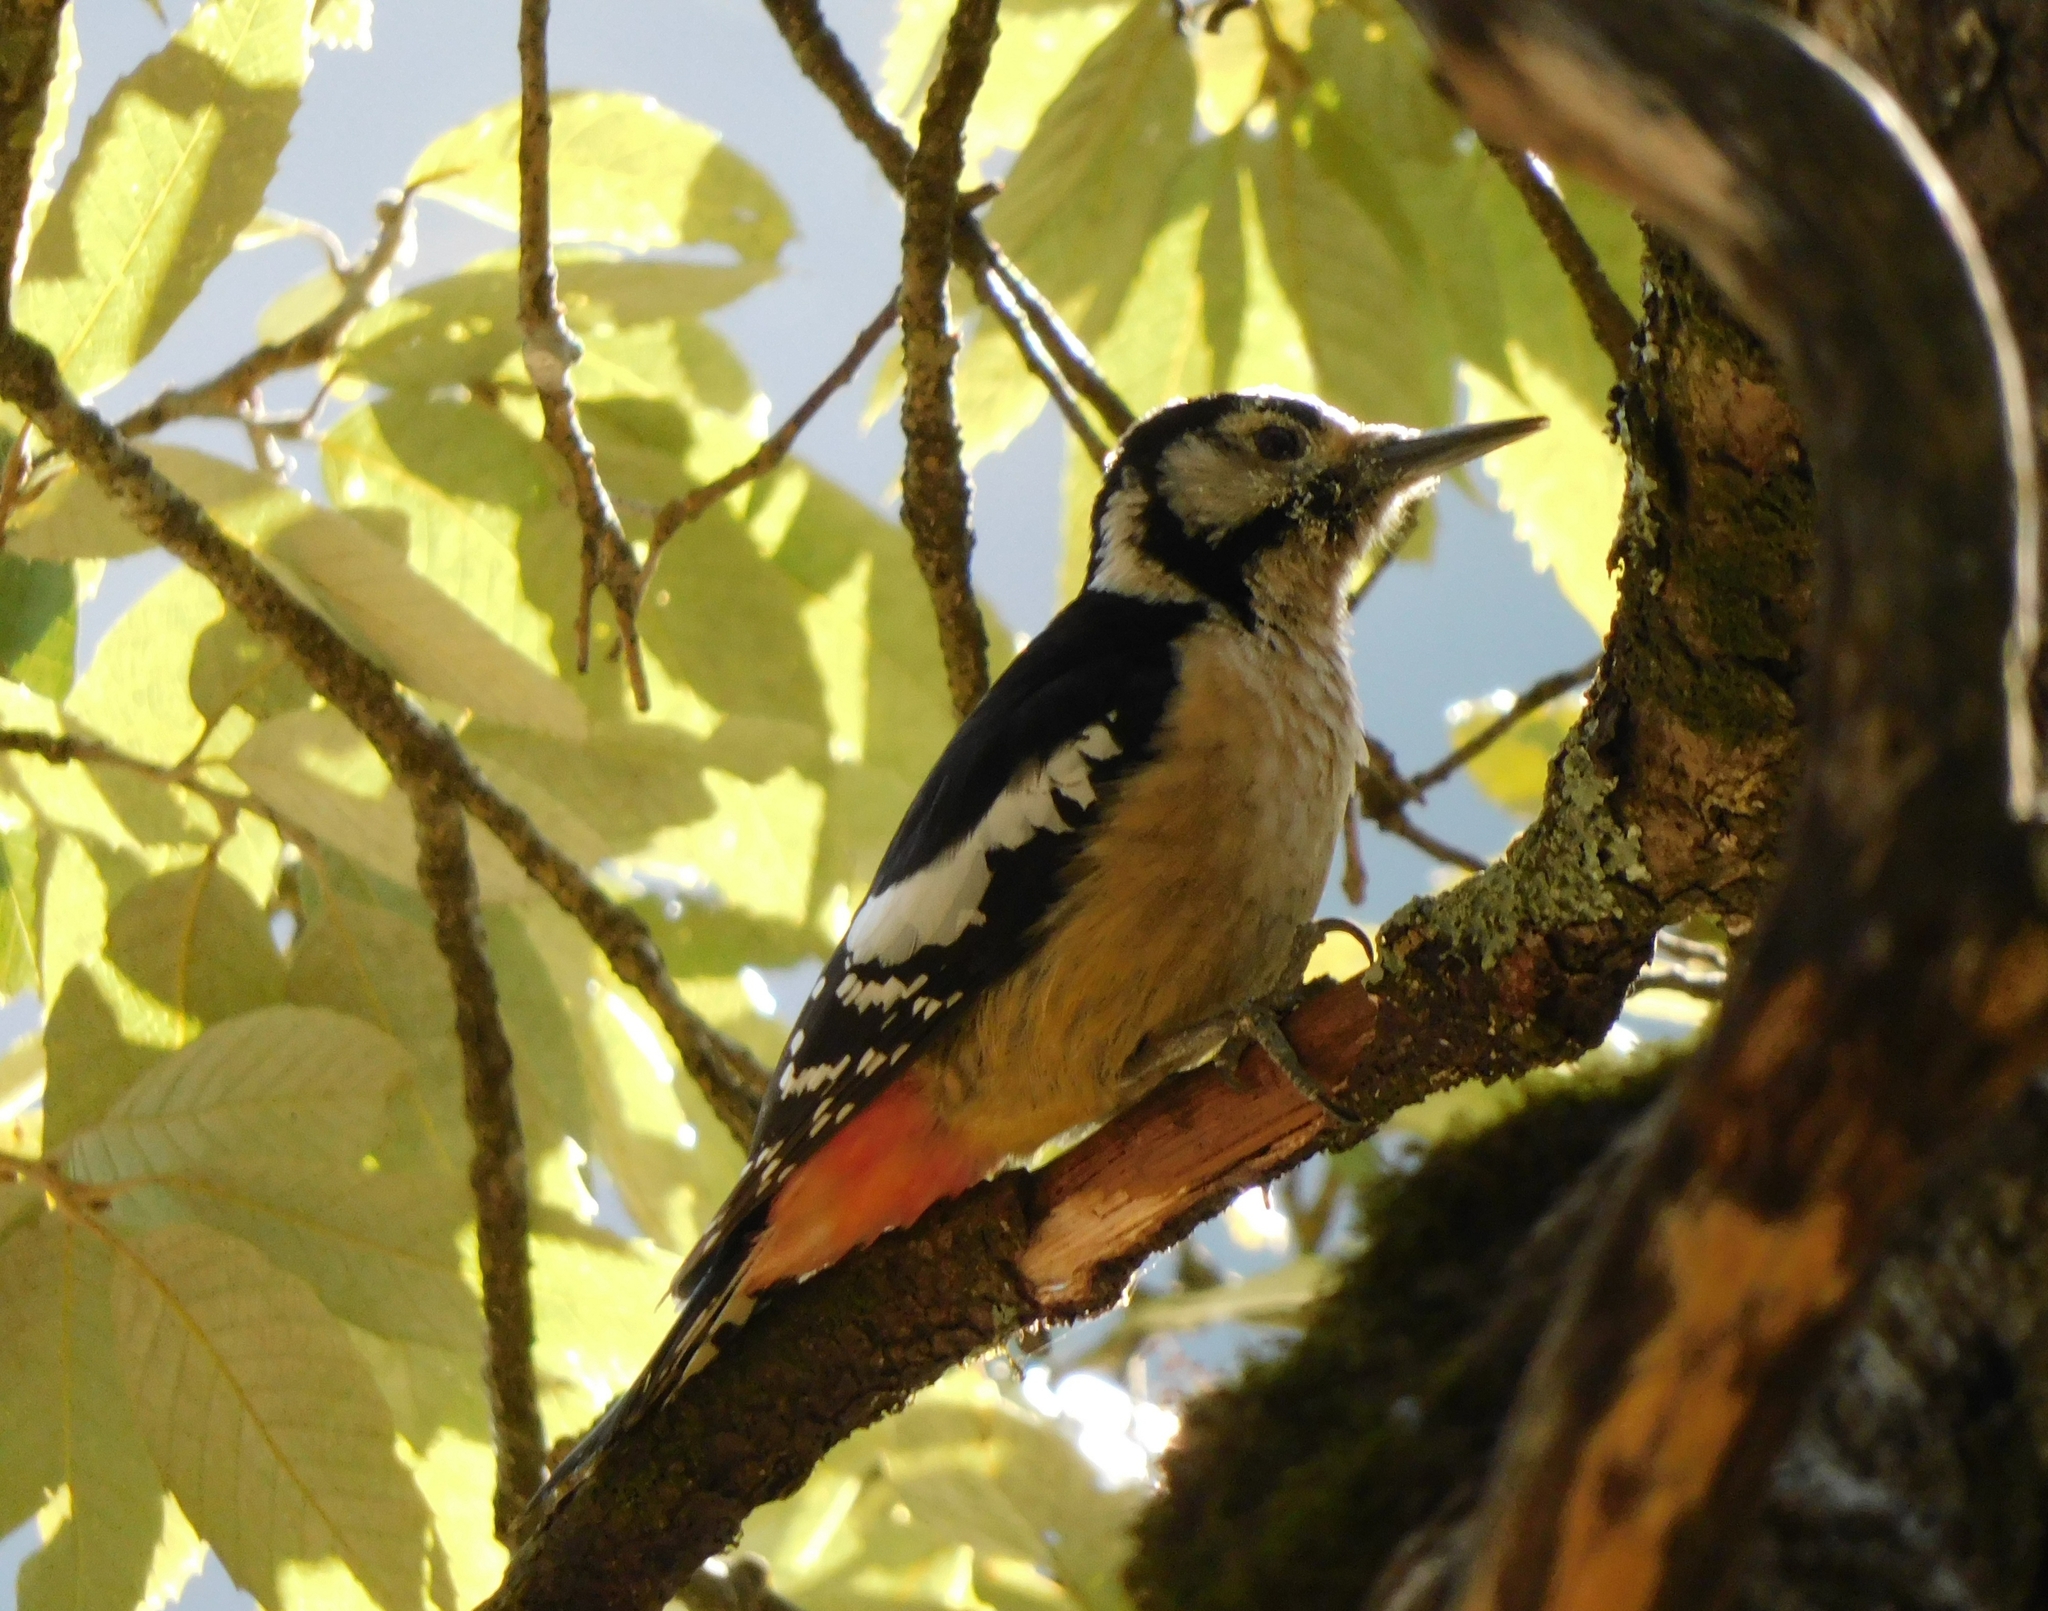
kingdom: Animalia
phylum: Chordata
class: Aves
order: Piciformes
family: Picidae
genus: Dendrocopos
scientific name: Dendrocopos himalayensis
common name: Himalayan woodpecker
